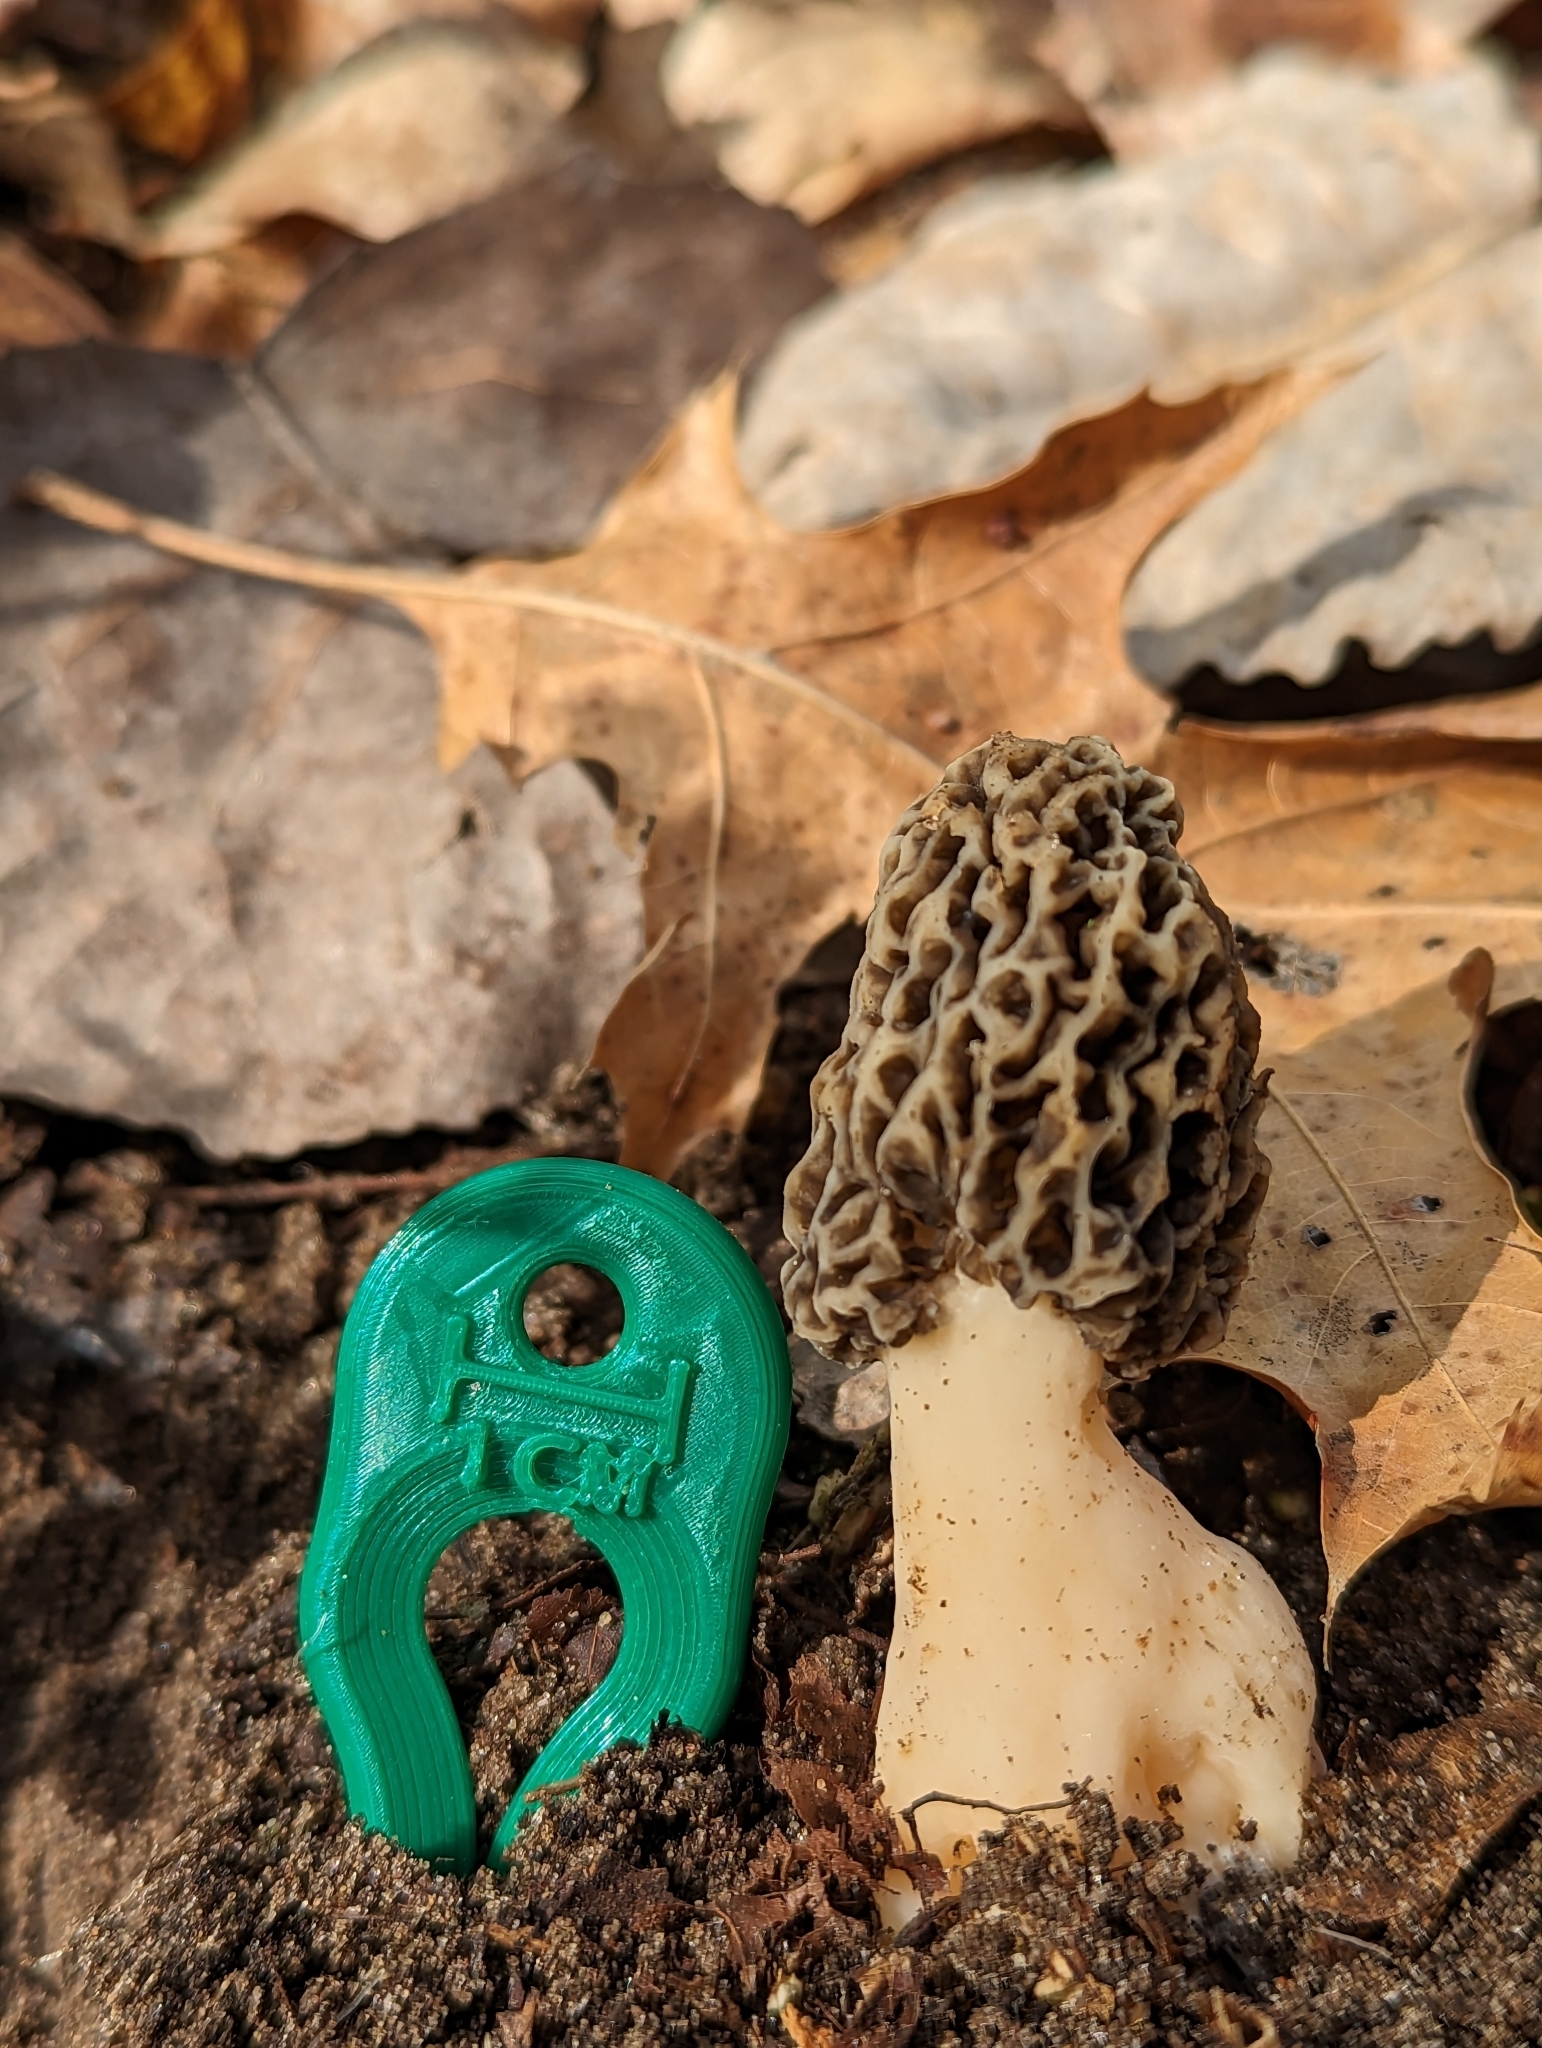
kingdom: Fungi
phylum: Ascomycota
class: Pezizomycetes
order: Pezizales
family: Morchellaceae
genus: Morchella
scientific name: Morchella americana
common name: White morel
